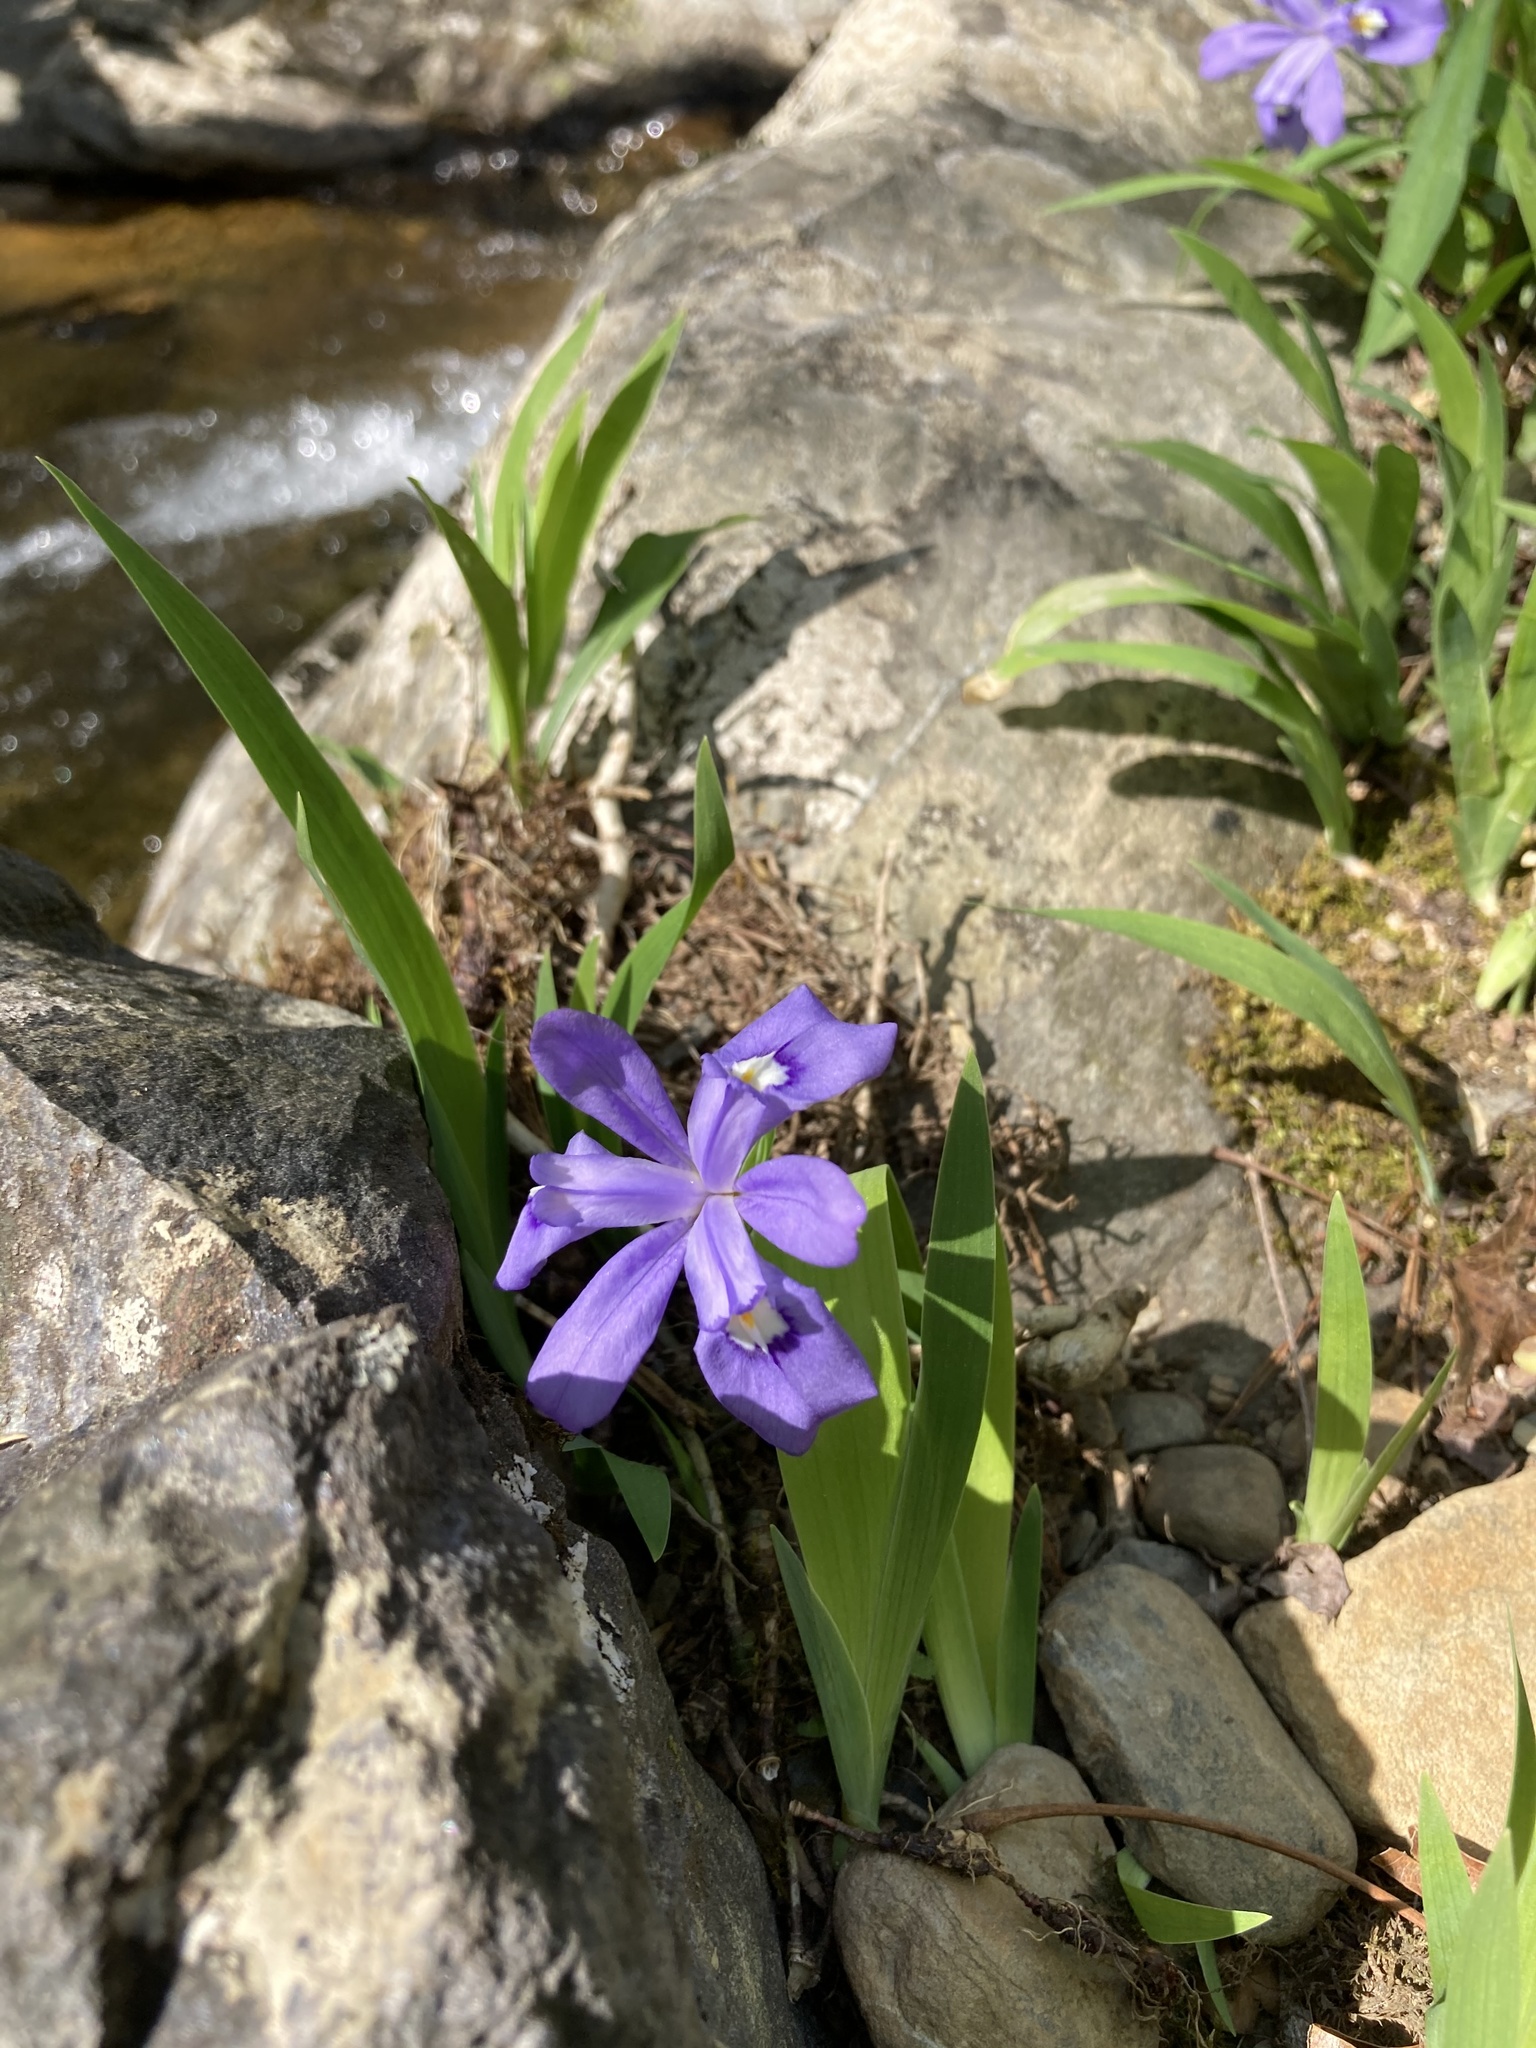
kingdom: Plantae
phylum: Tracheophyta
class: Liliopsida
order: Asparagales
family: Iridaceae
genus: Iris
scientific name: Iris cristata
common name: Crested iris
